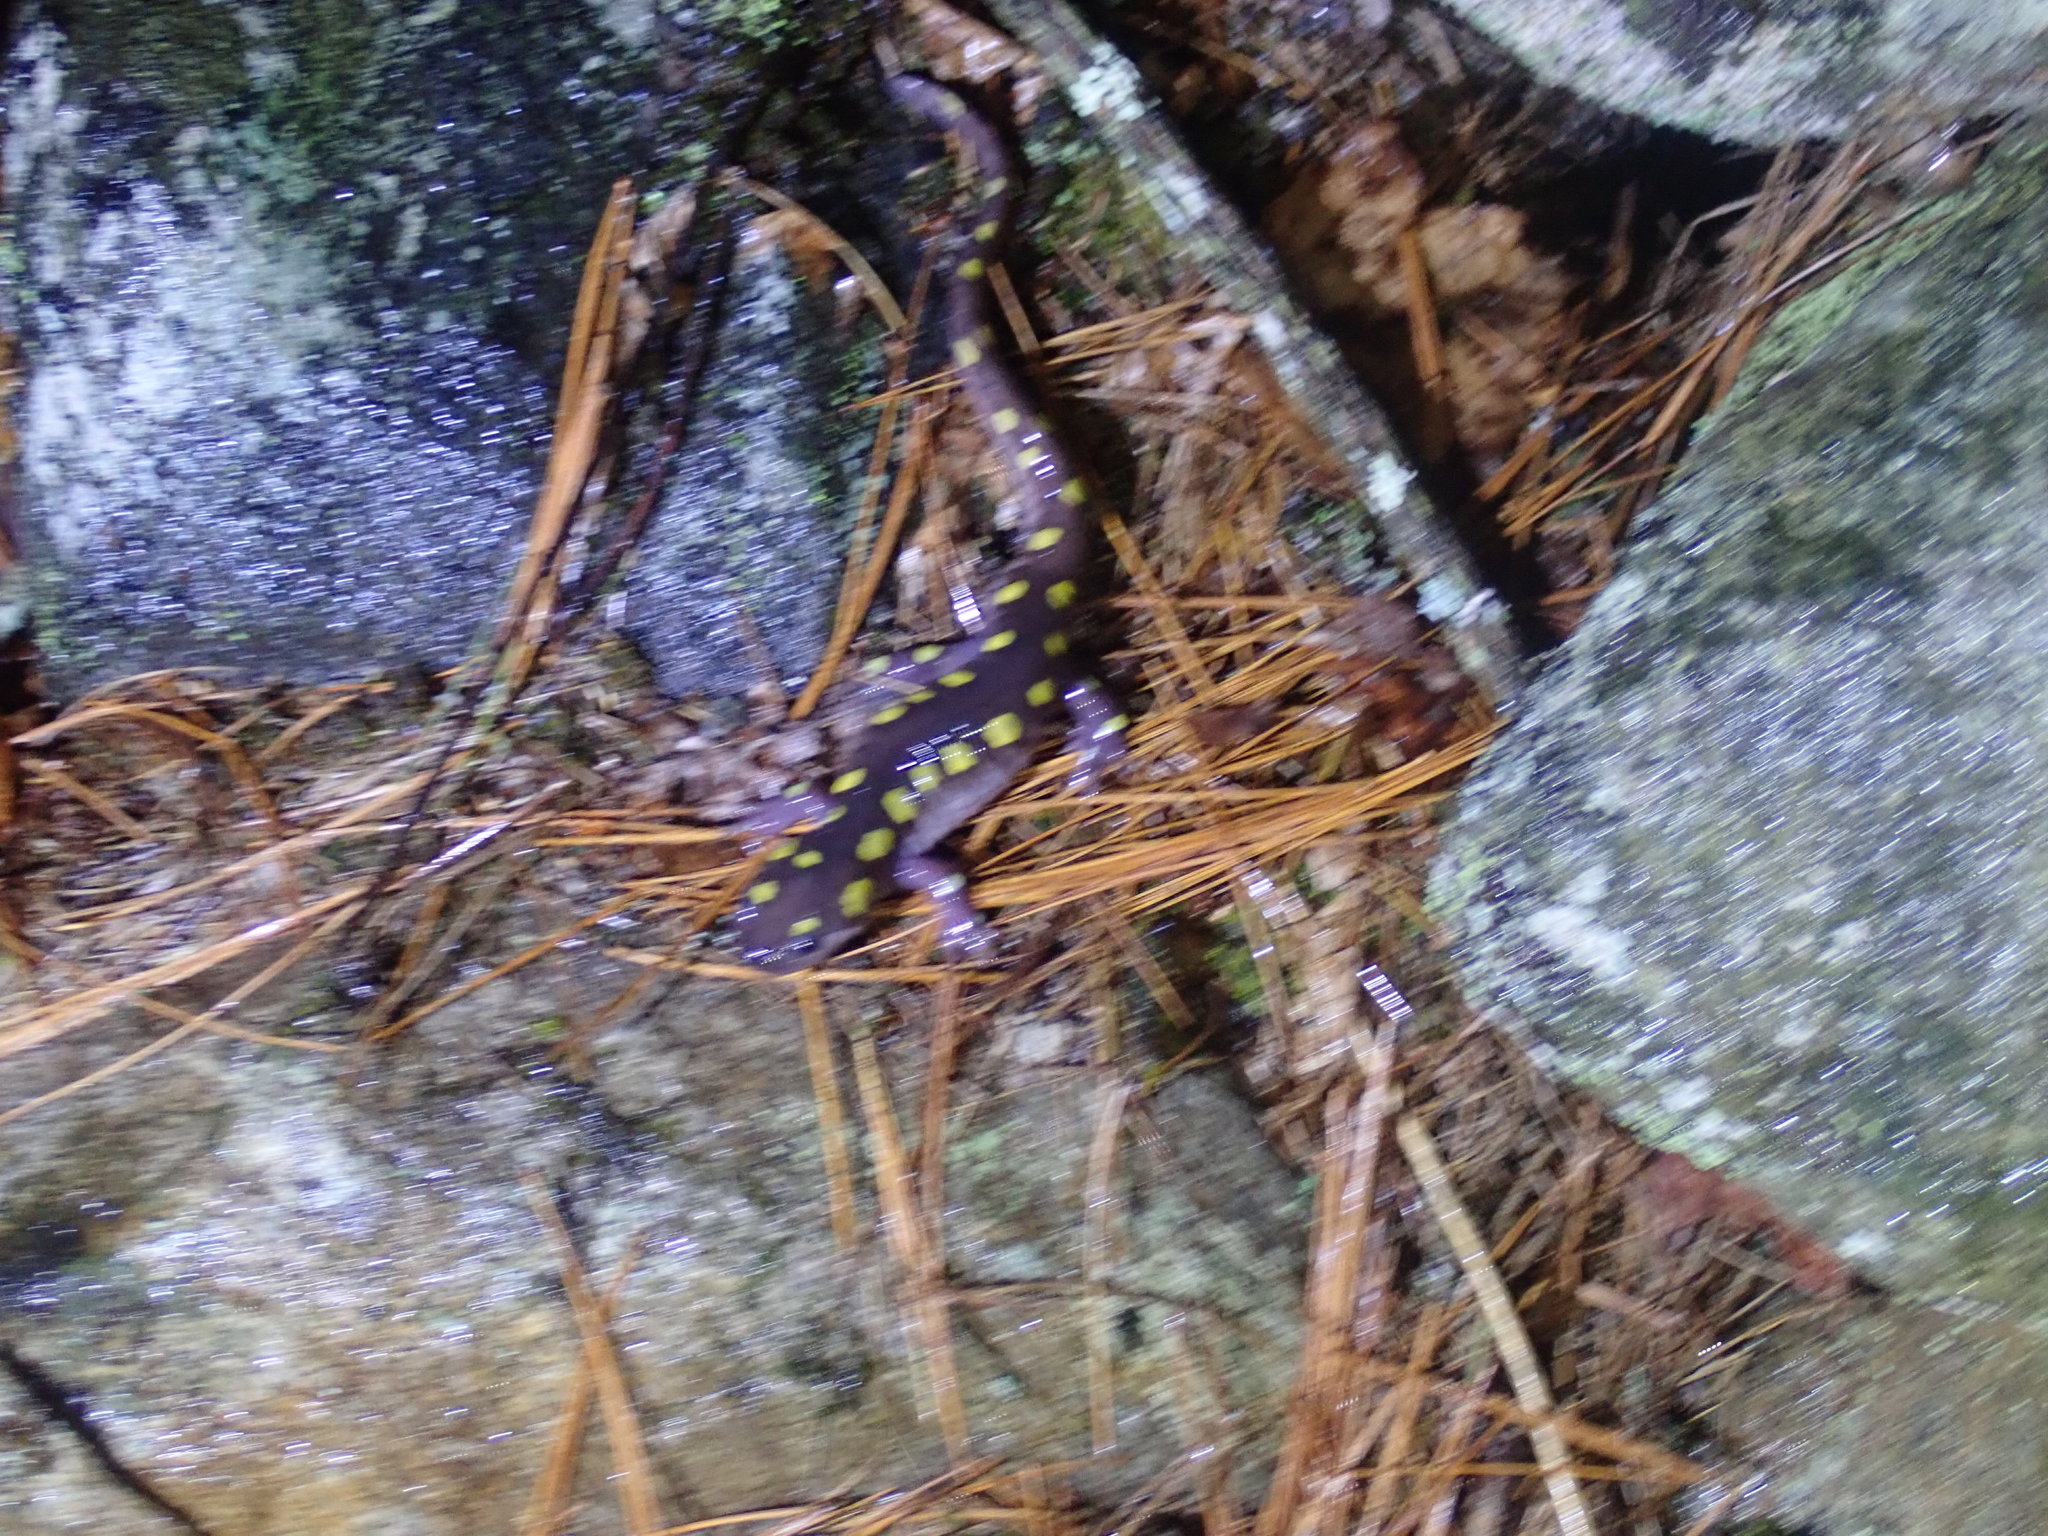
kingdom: Animalia
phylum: Chordata
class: Amphibia
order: Caudata
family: Ambystomatidae
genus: Ambystoma
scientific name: Ambystoma maculatum
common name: Spotted salamander
